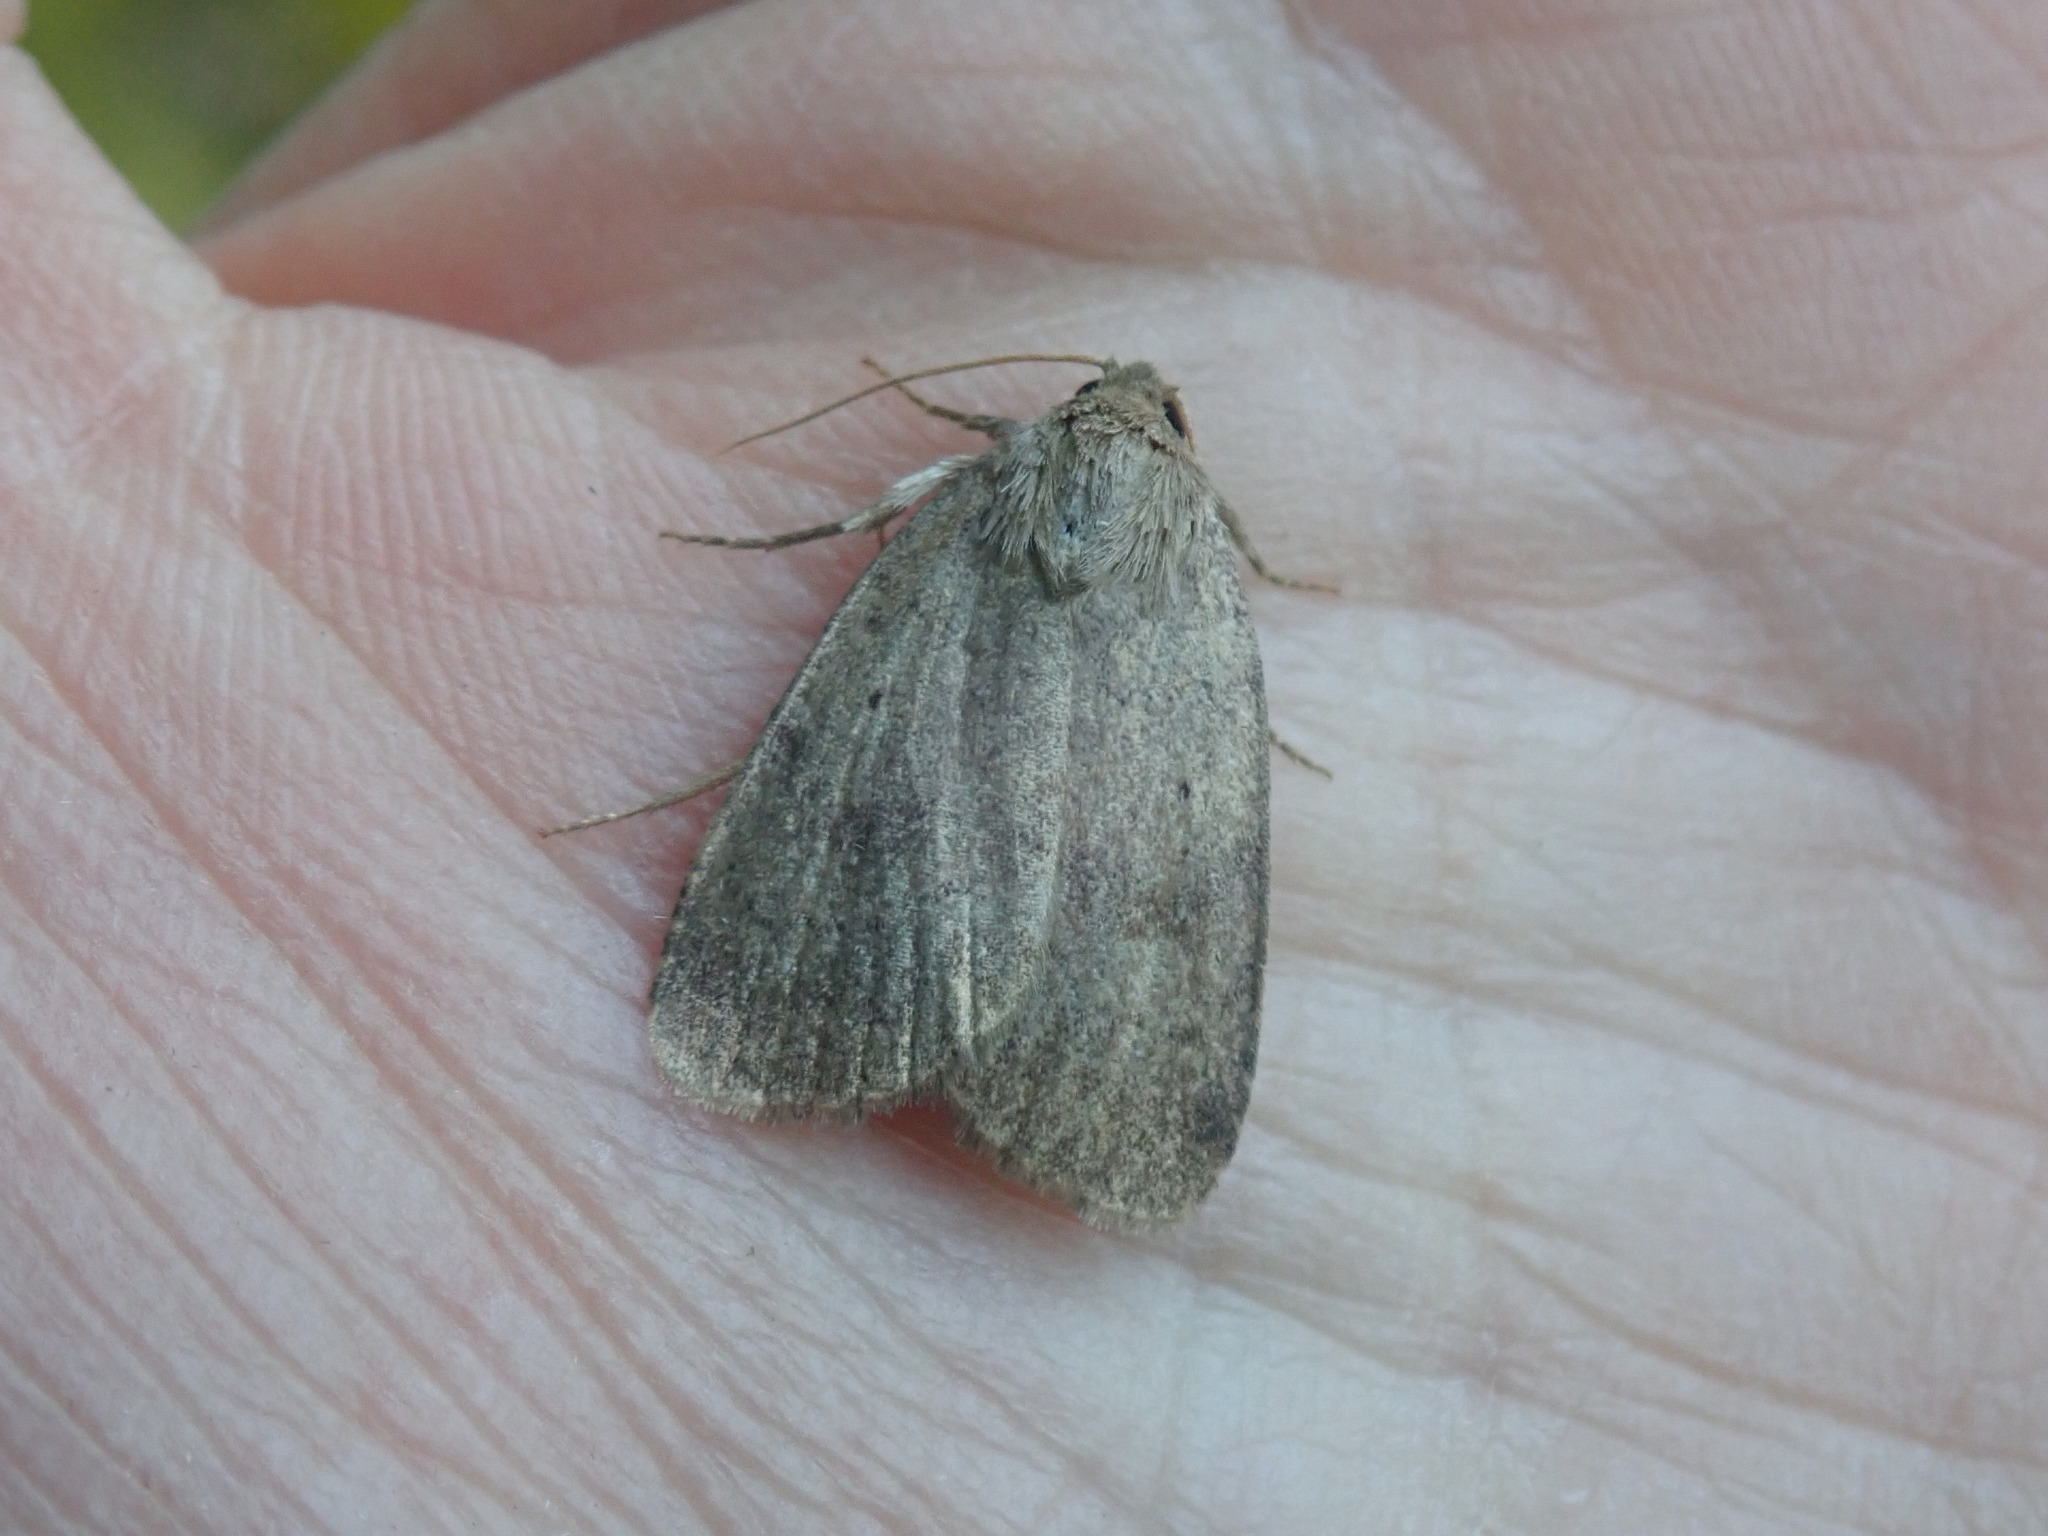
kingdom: Animalia
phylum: Arthropoda
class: Insecta
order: Lepidoptera
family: Noctuidae
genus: Athetis
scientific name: Athetis tarda
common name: Slowpoke moth
